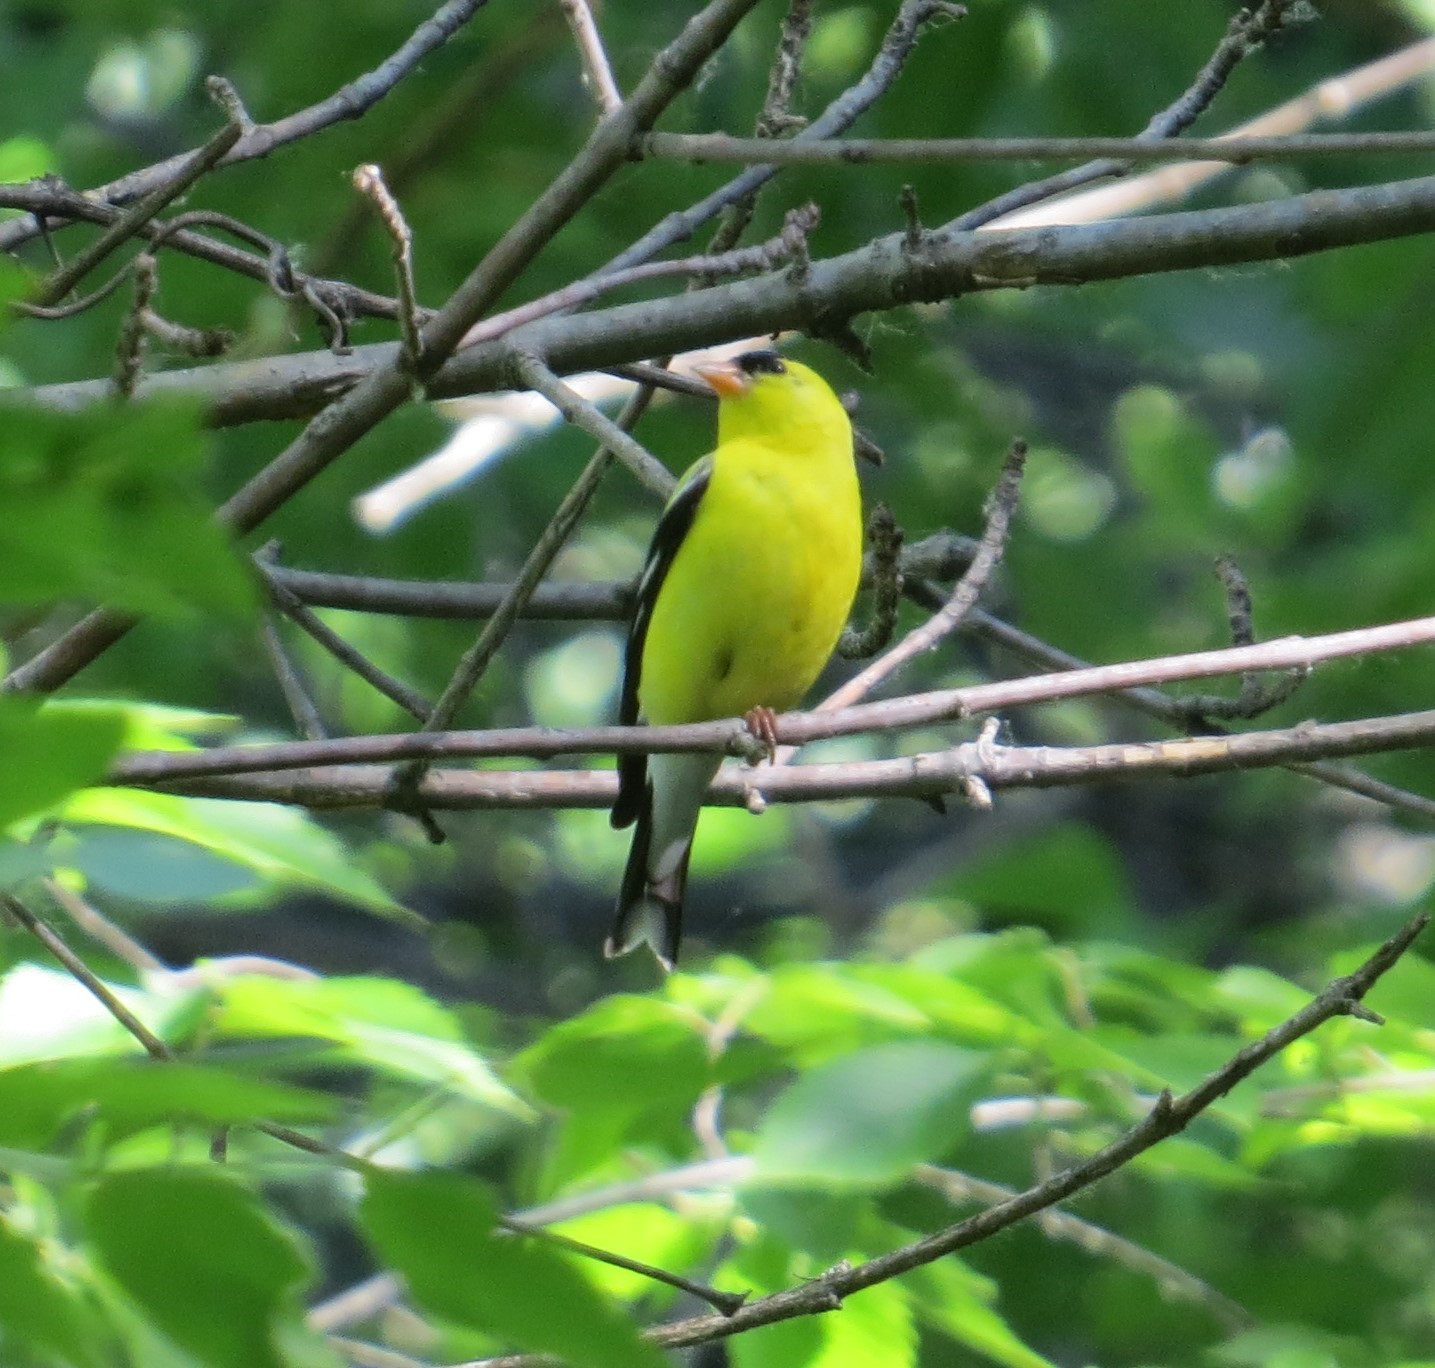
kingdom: Animalia
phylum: Chordata
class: Aves
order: Passeriformes
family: Fringillidae
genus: Spinus
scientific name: Spinus tristis
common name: American goldfinch
